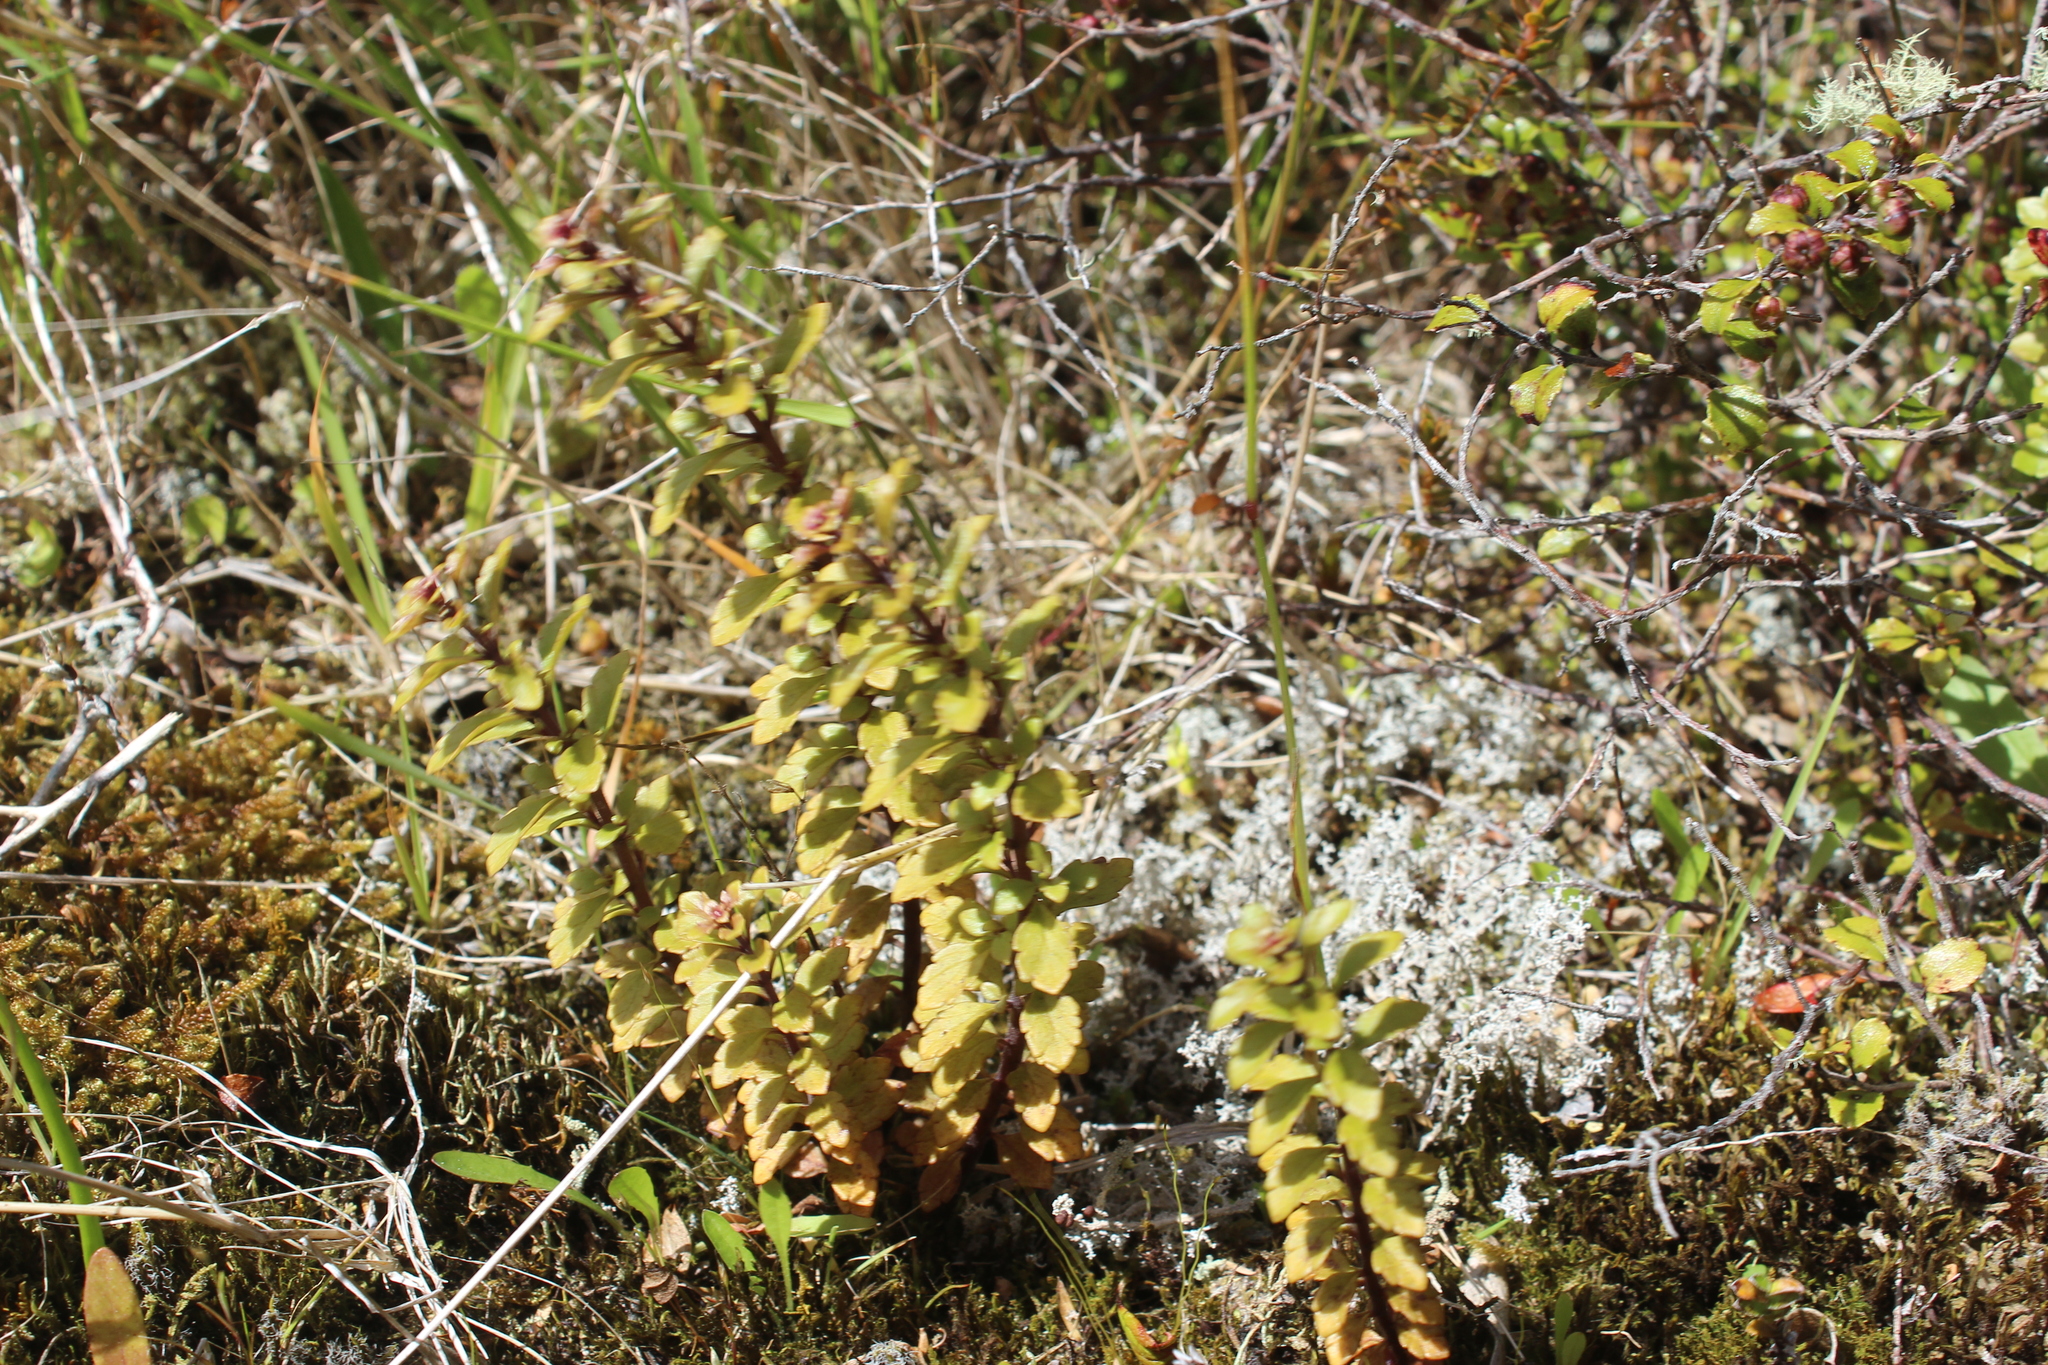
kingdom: Plantae
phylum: Tracheophyta
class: Magnoliopsida
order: Lamiales
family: Orobanchaceae
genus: Euphrasia
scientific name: Euphrasia cuneata
